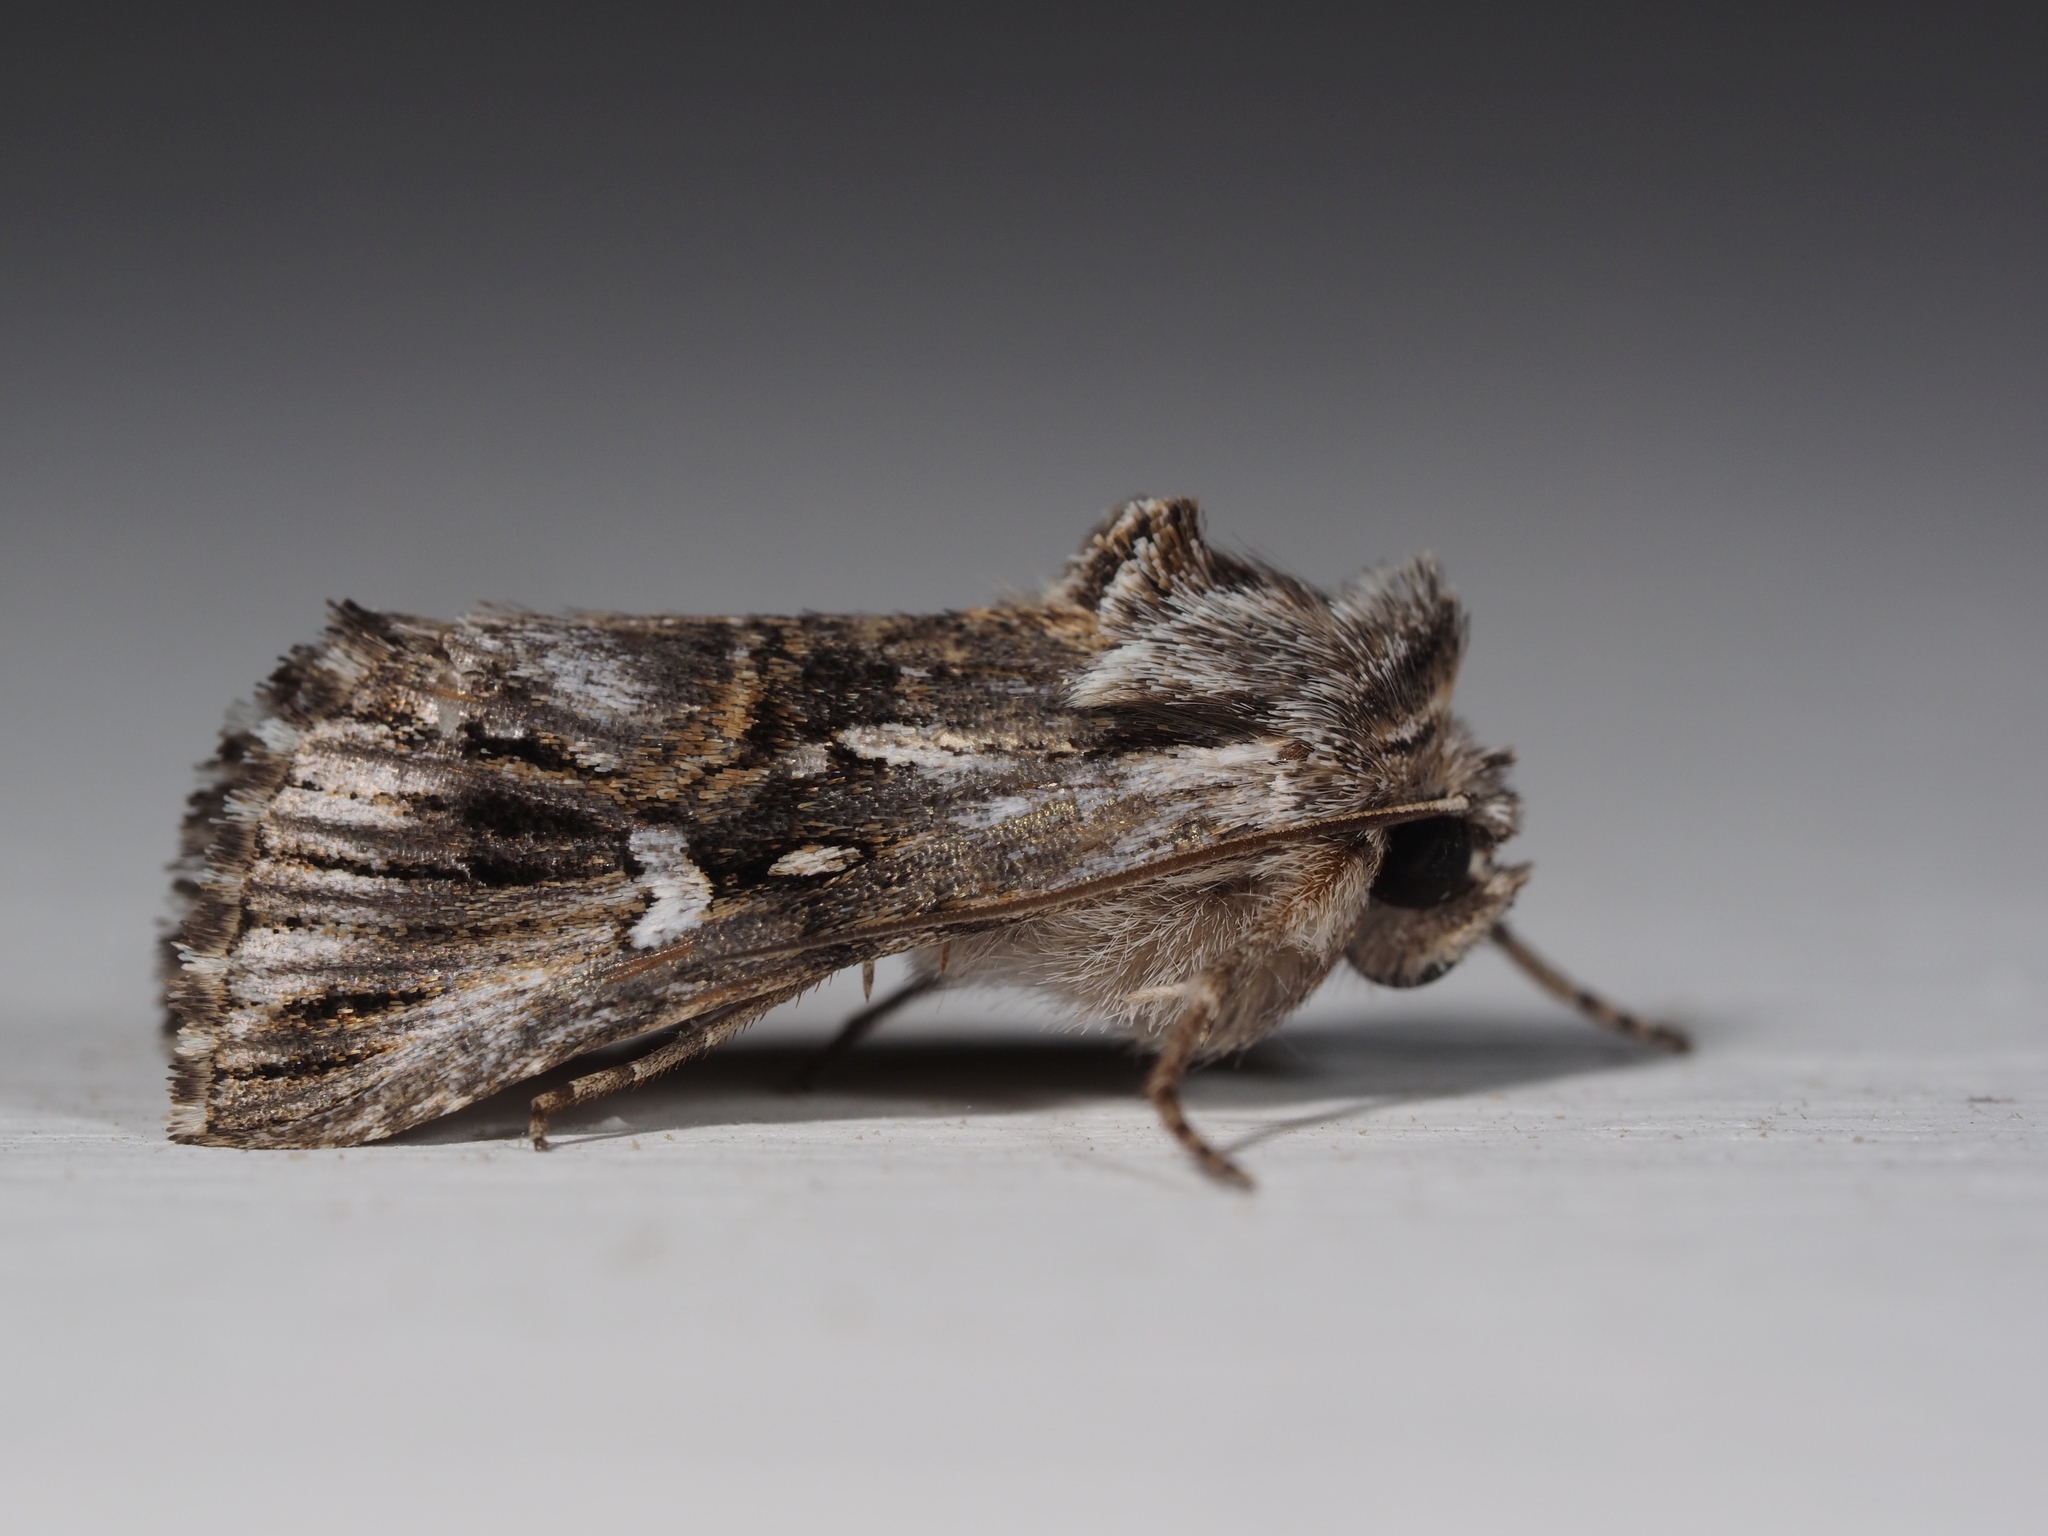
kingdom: Animalia
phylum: Arthropoda
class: Insecta
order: Lepidoptera
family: Noctuidae
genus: Calophasia
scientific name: Calophasia lunula
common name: Toadflax brocade
